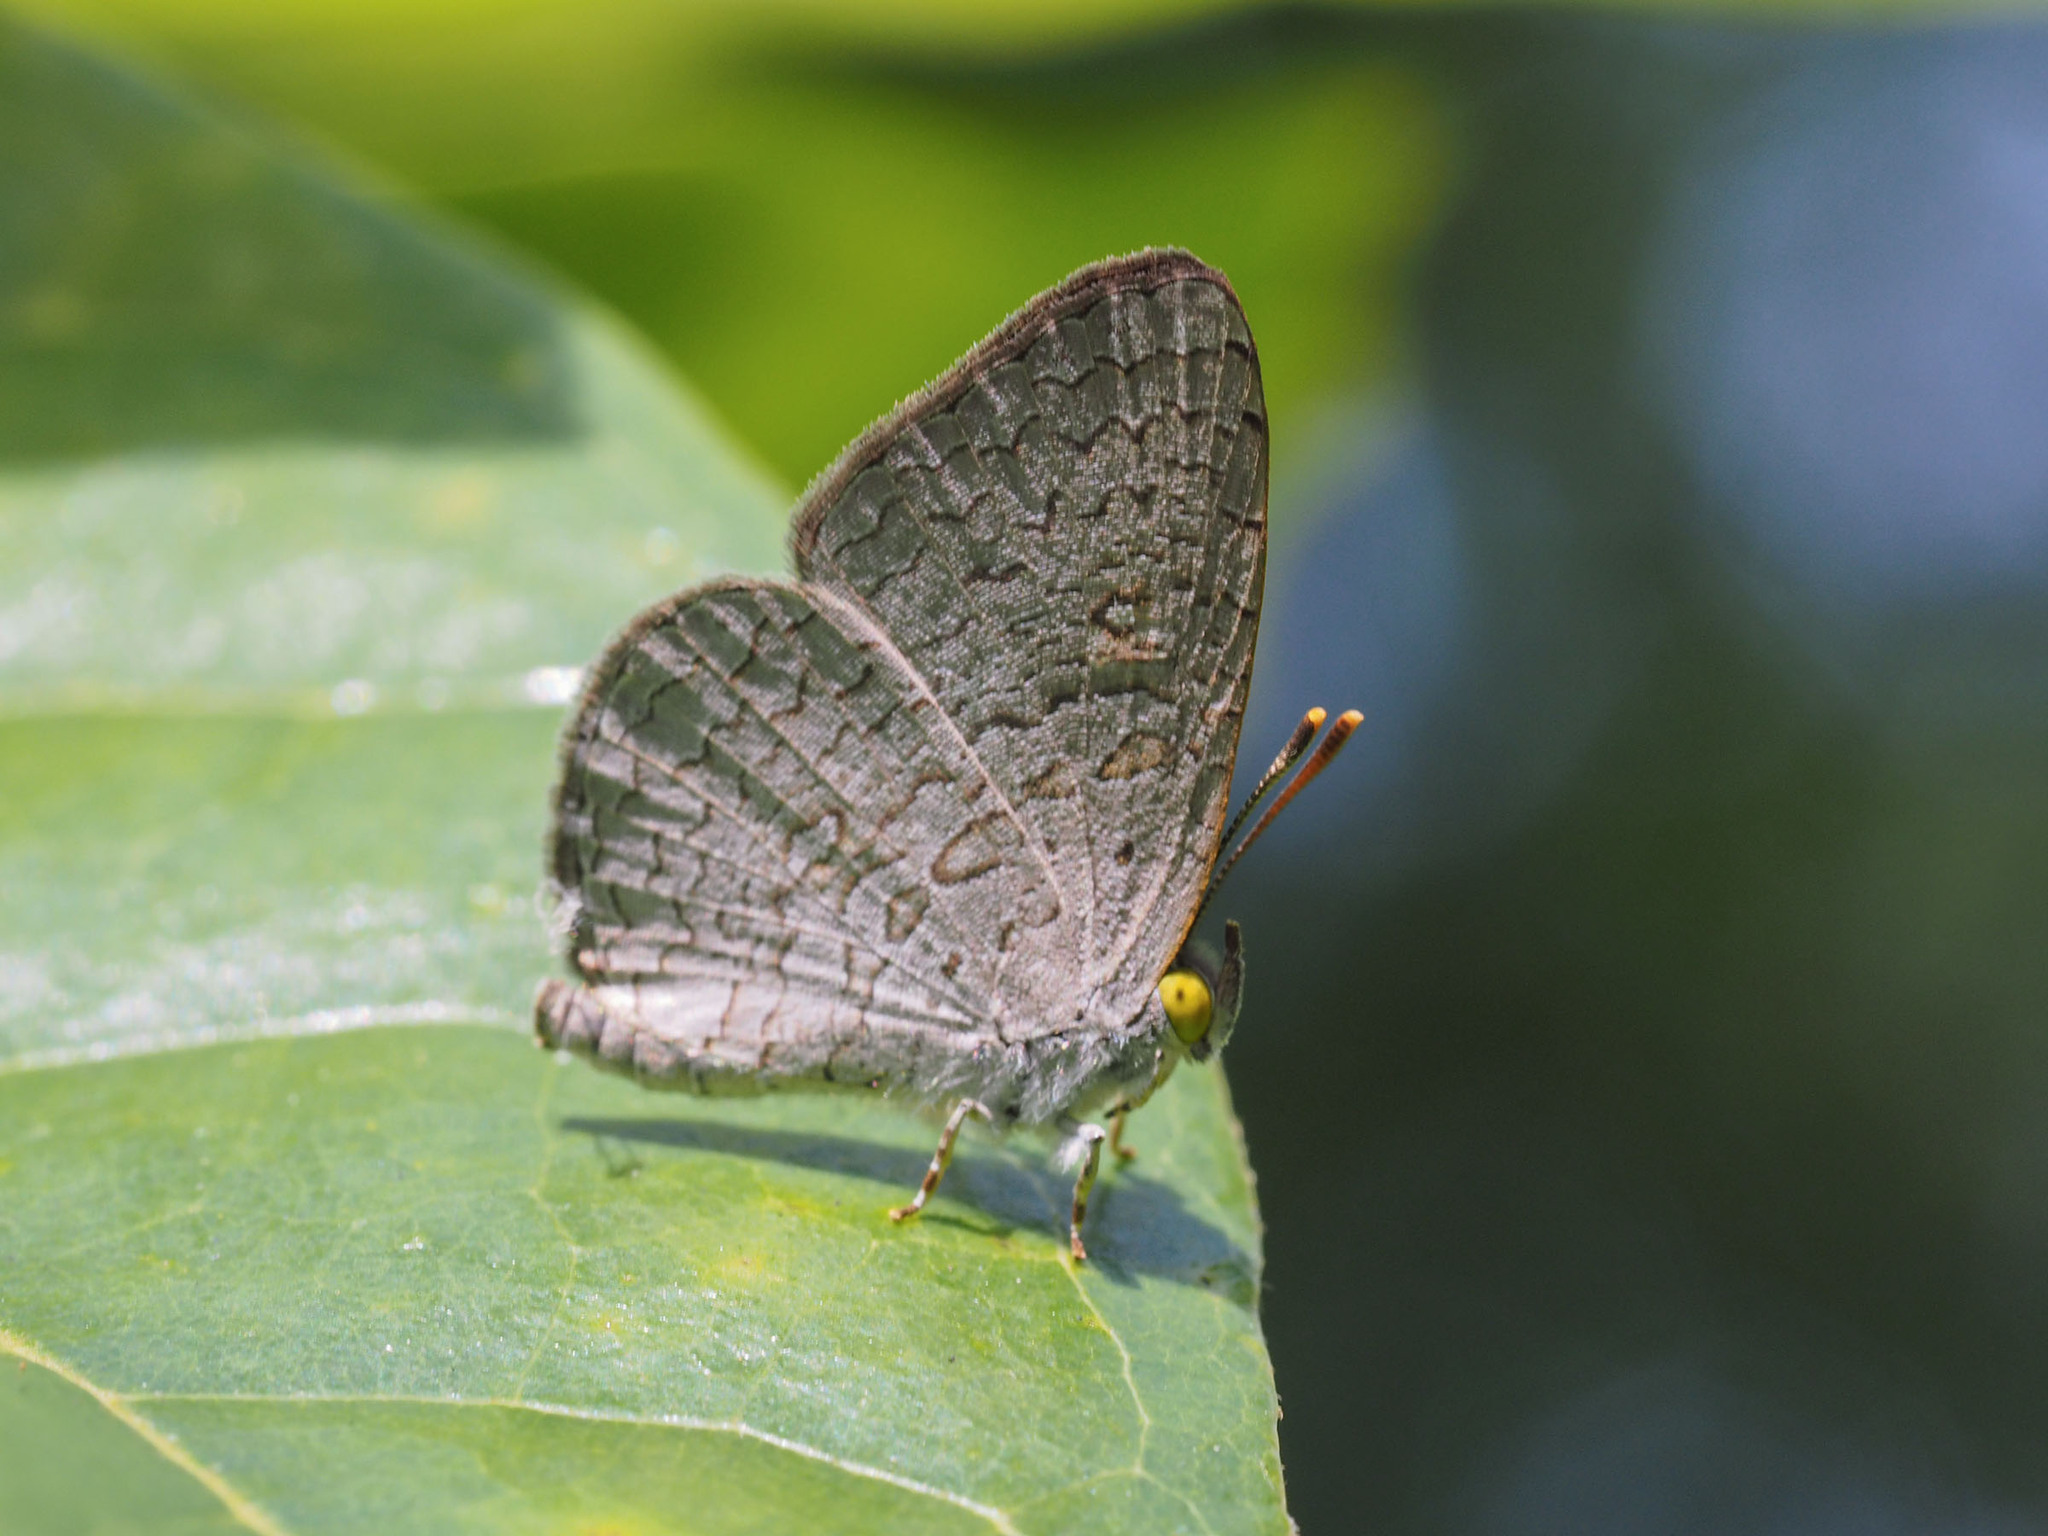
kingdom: Animalia
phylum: Arthropoda
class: Insecta
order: Lepidoptera
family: Lycaenidae
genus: Spalgis
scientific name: Spalgis epius
